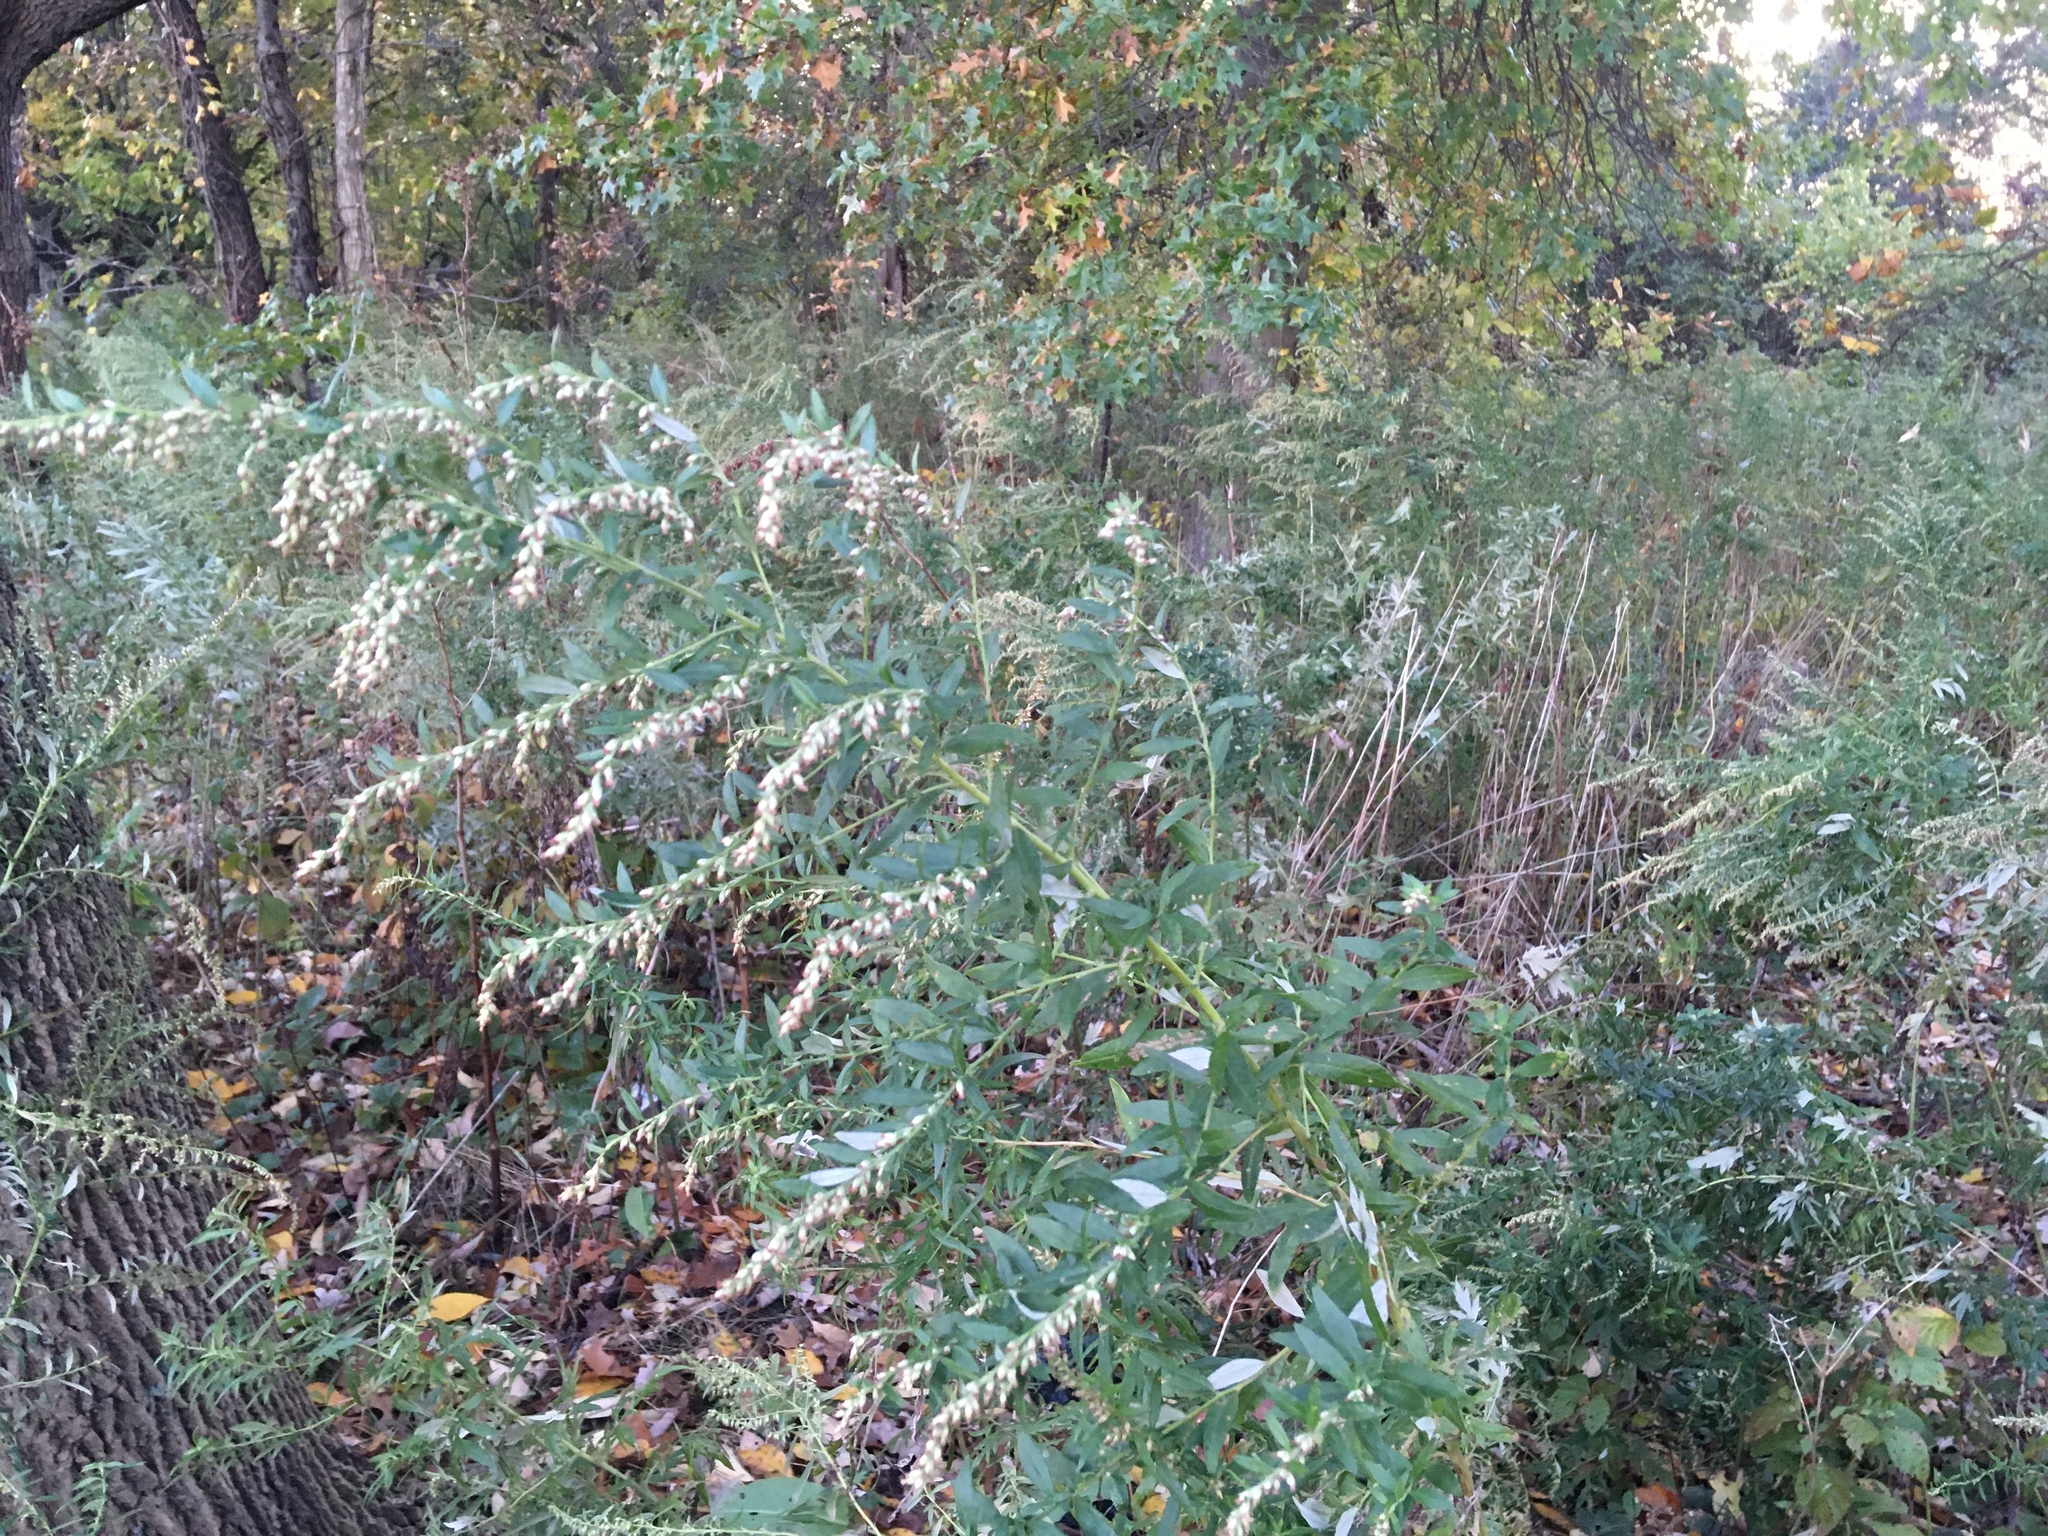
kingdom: Plantae
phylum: Tracheophyta
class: Magnoliopsida
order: Asterales
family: Asteraceae
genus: Artemisia
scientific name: Artemisia vulgaris
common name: Mugwort
